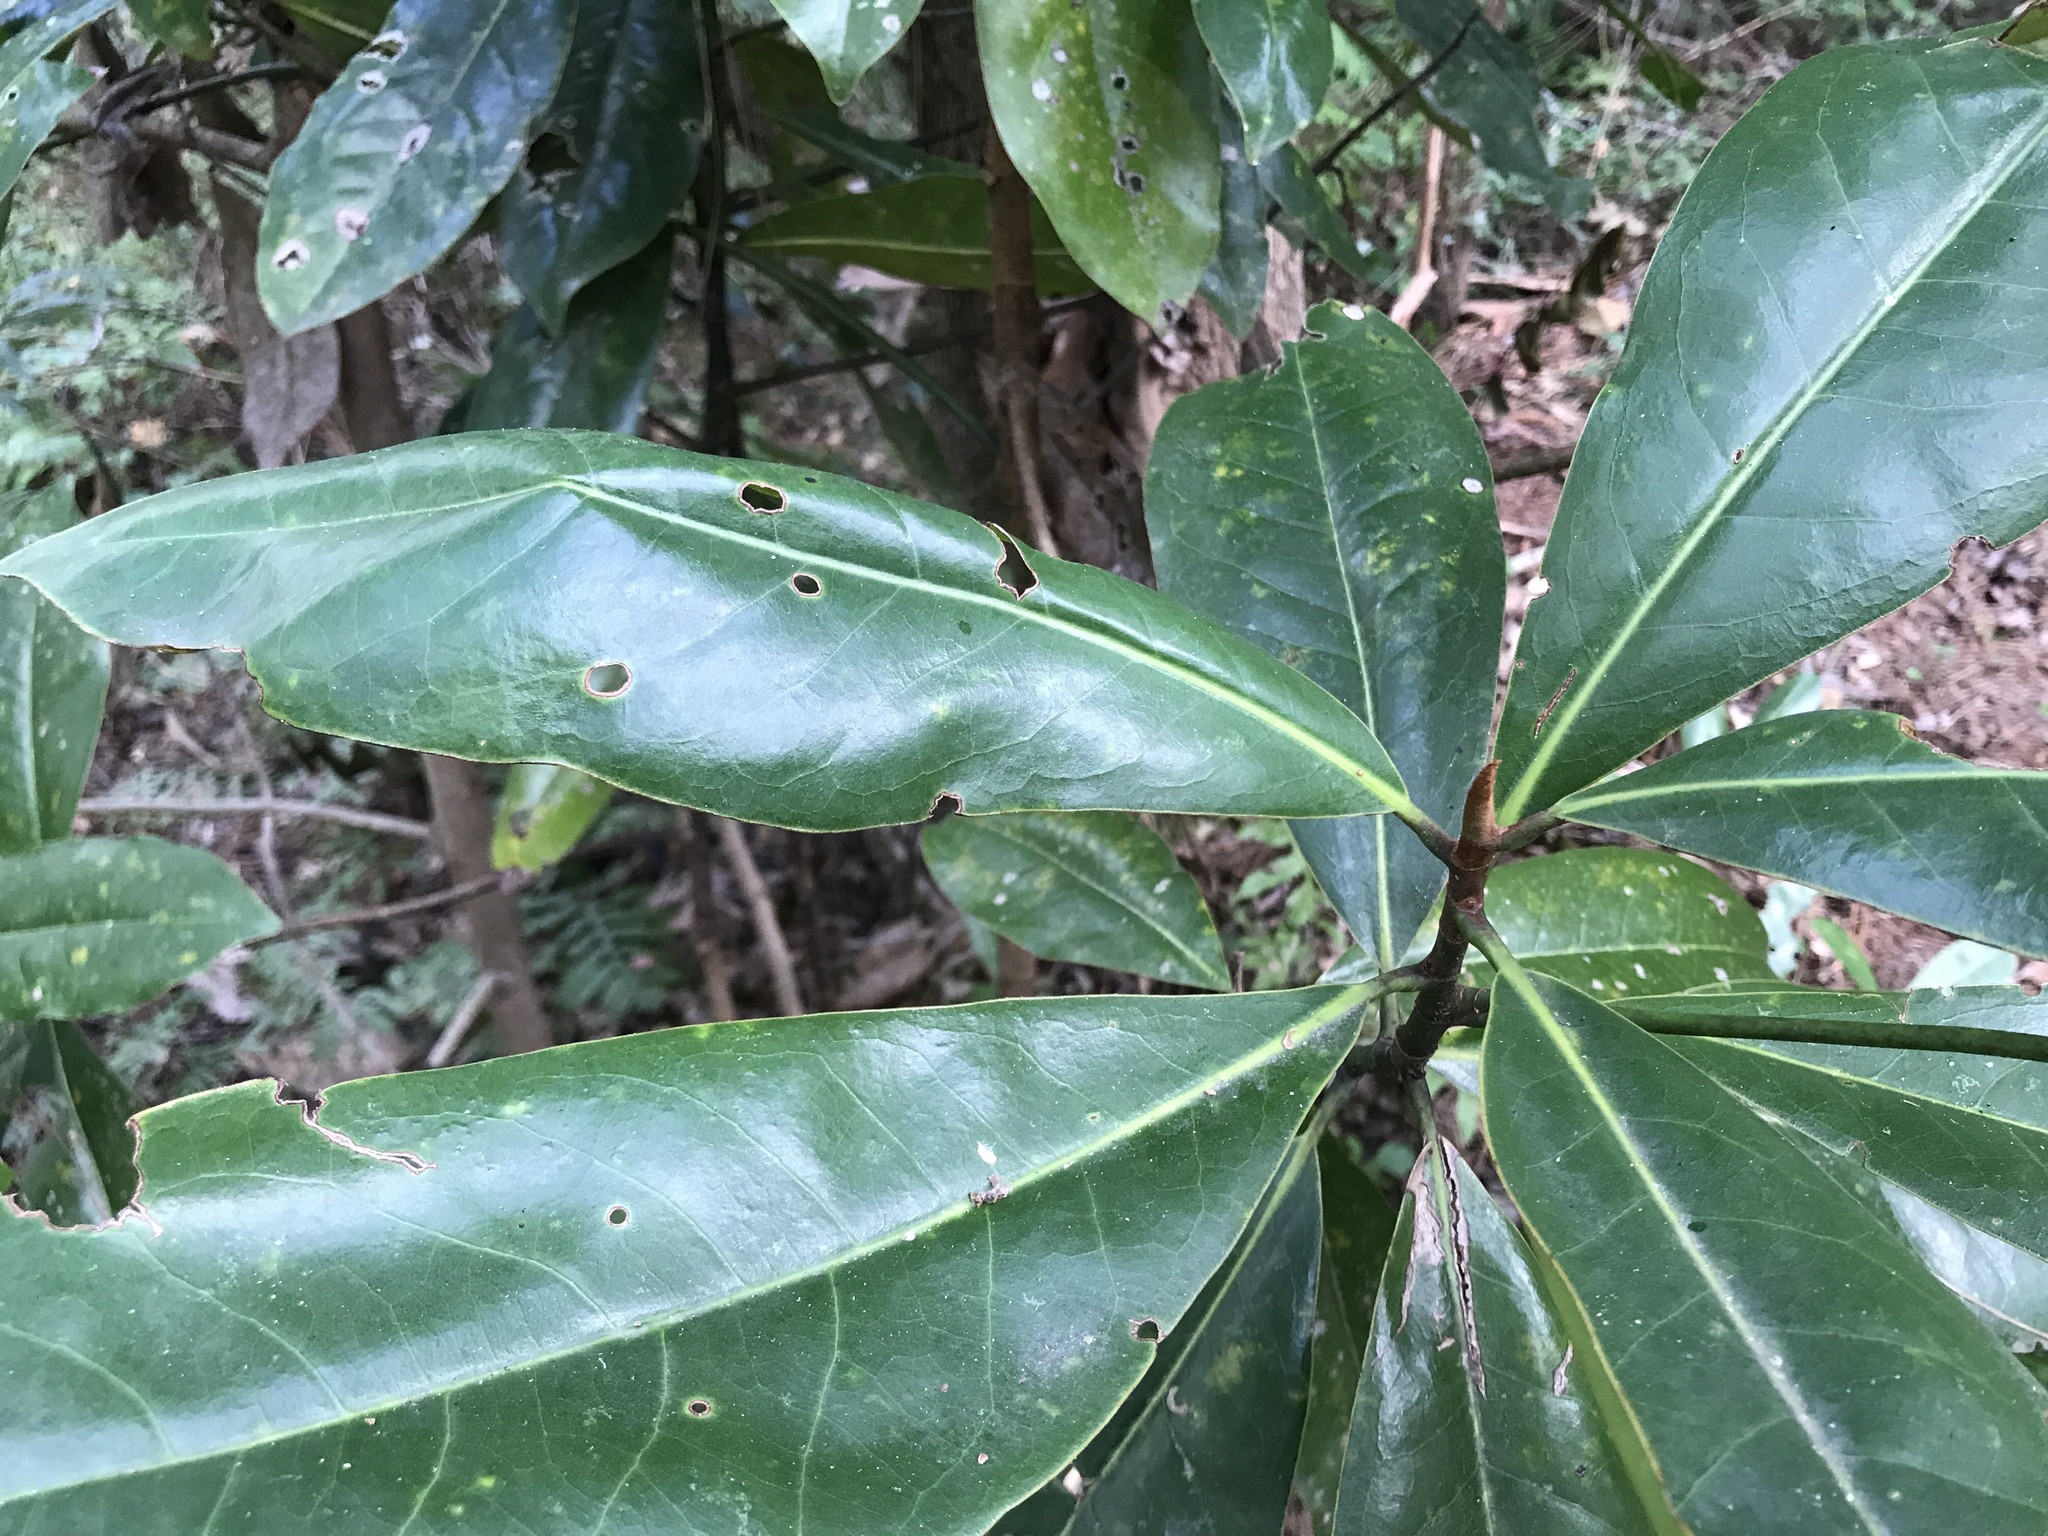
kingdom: Plantae
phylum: Tracheophyta
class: Magnoliopsida
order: Magnoliales
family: Magnoliaceae
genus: Magnolia
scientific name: Magnolia grandiflora
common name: Southern magnolia
